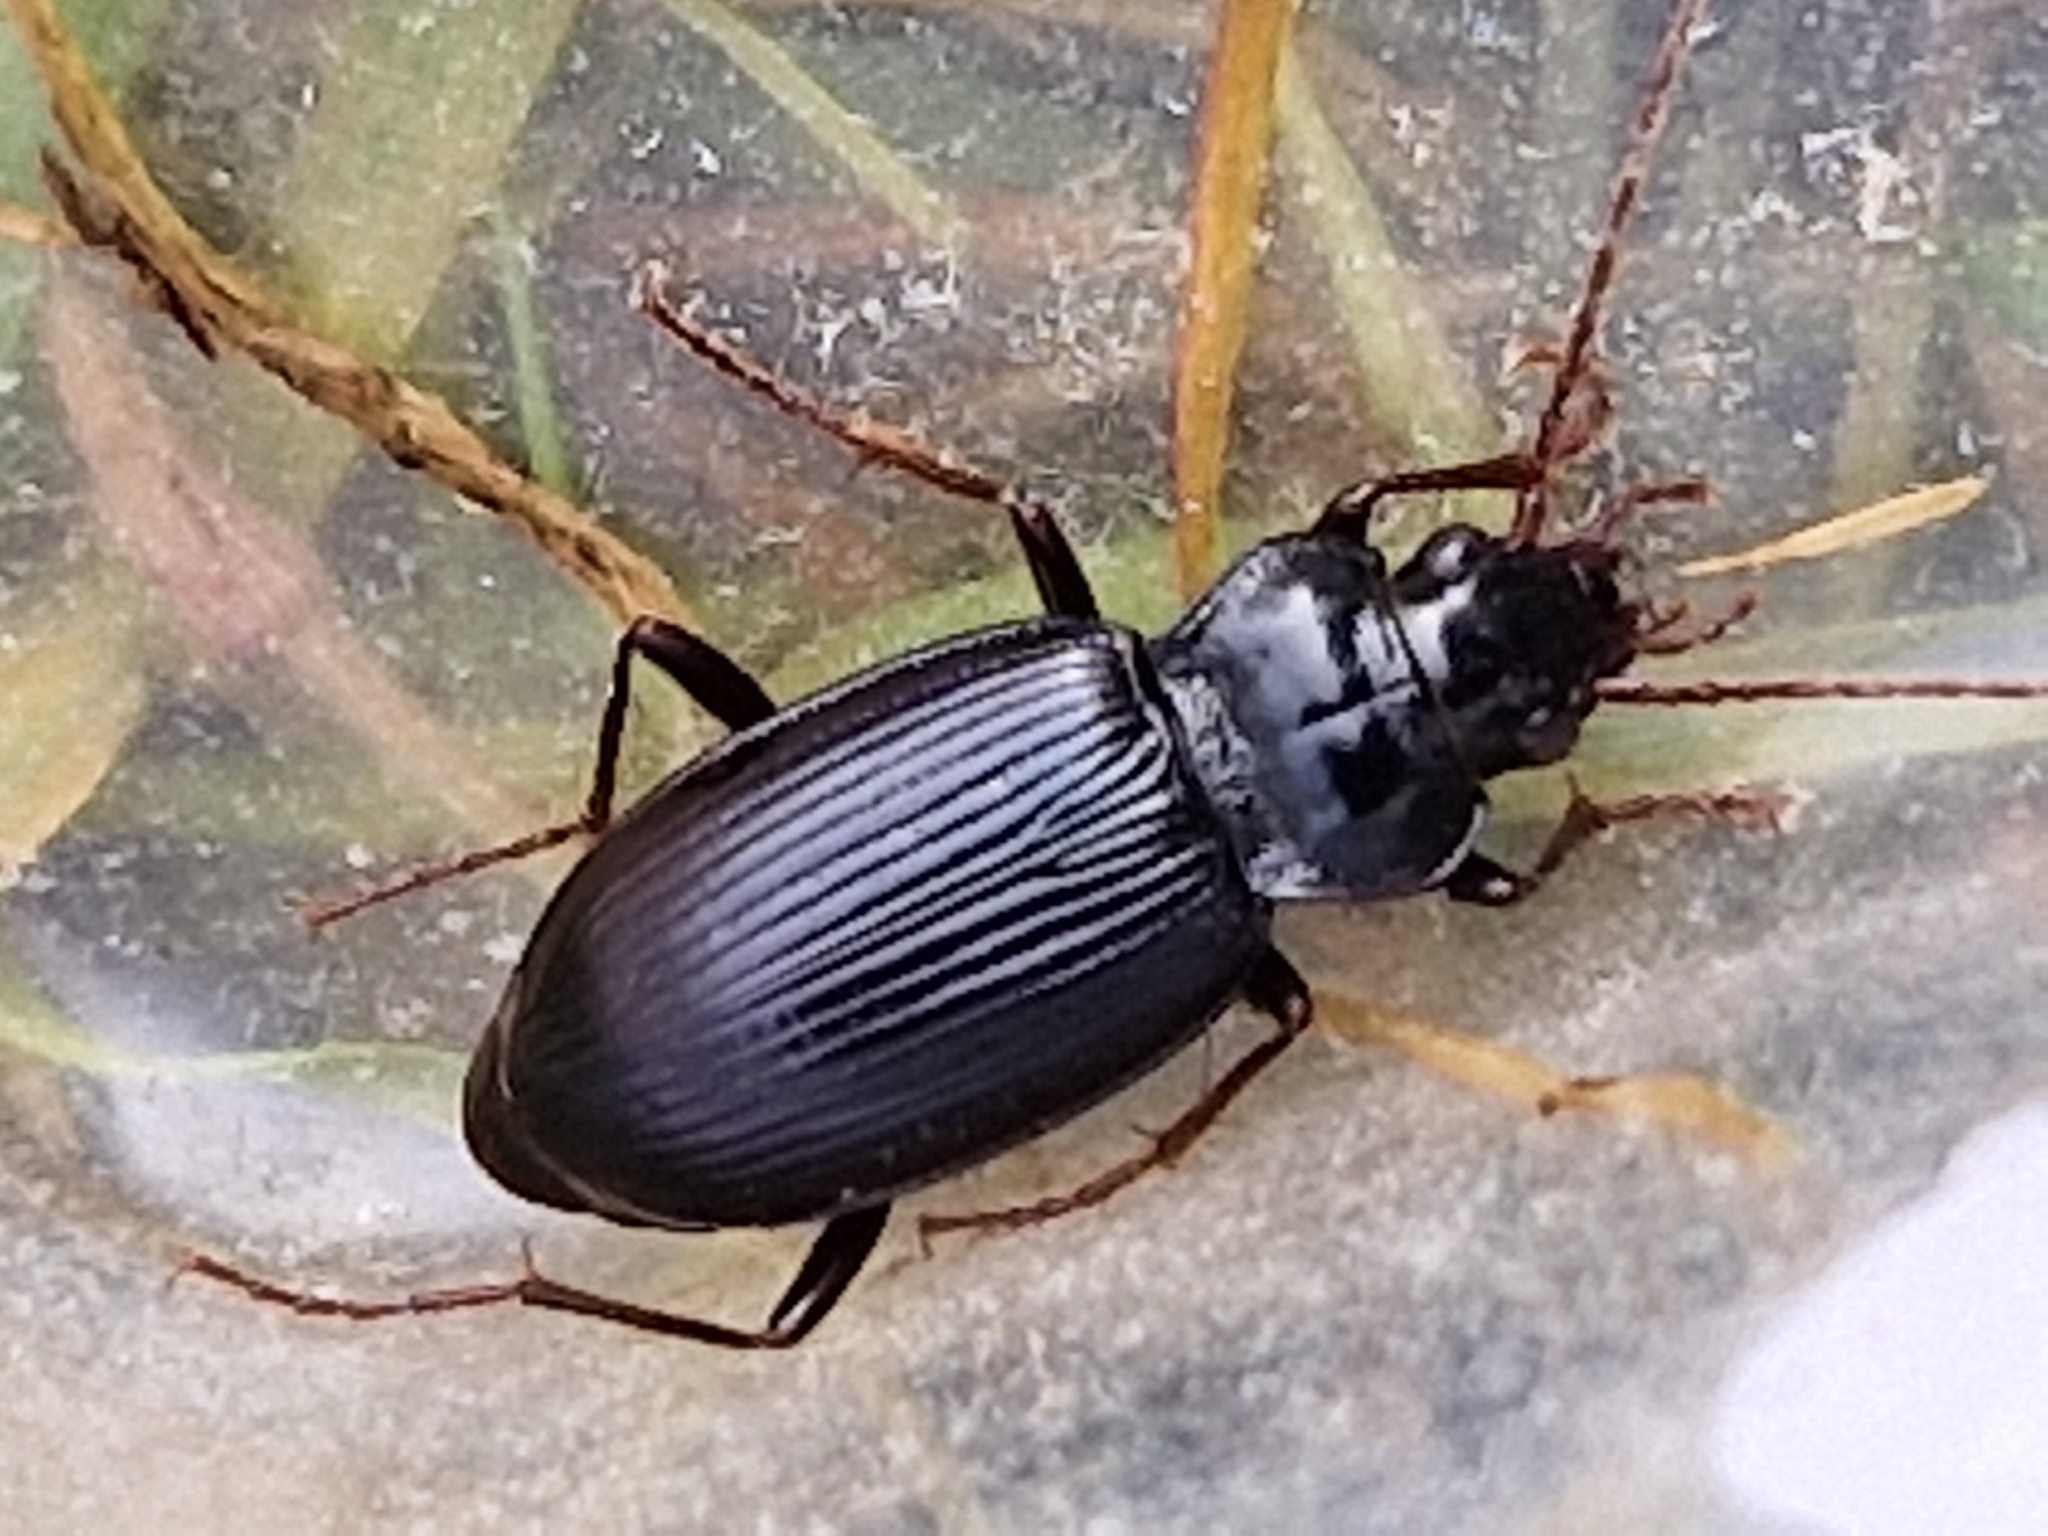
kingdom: Animalia
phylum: Arthropoda
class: Insecta
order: Coleoptera
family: Carabidae
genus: Nebria
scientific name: Nebria brevicollis
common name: Short-necked gazelle beetle
